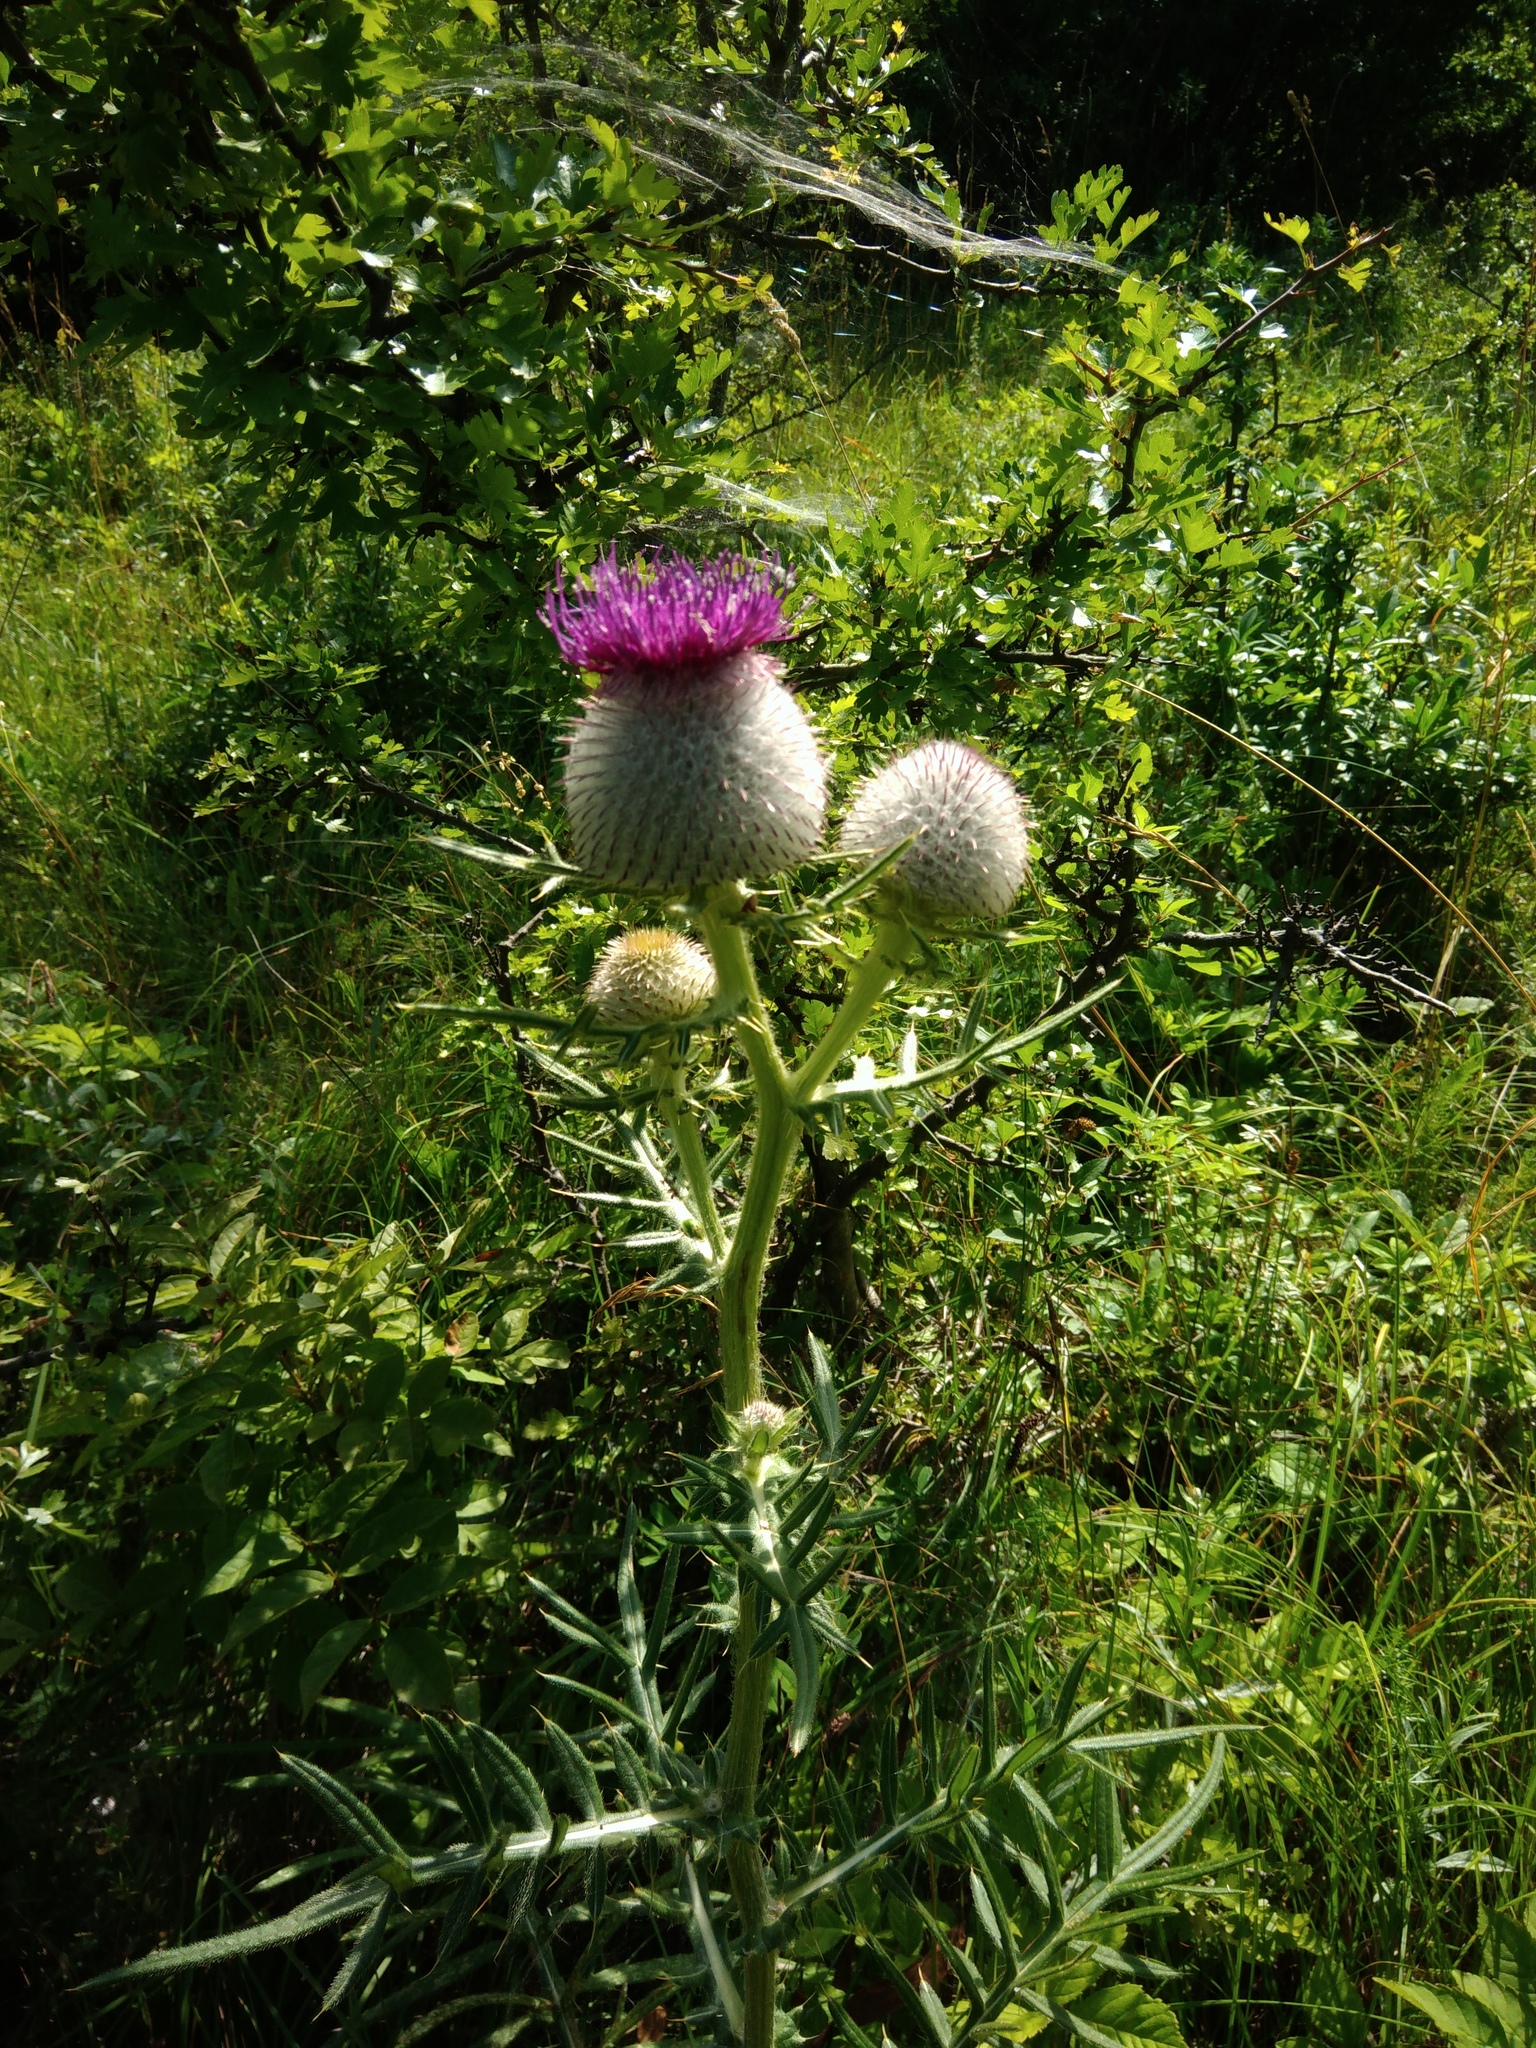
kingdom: Plantae
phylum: Tracheophyta
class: Magnoliopsida
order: Asterales
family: Asteraceae
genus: Lophiolepis
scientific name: Lophiolepis eriophora
